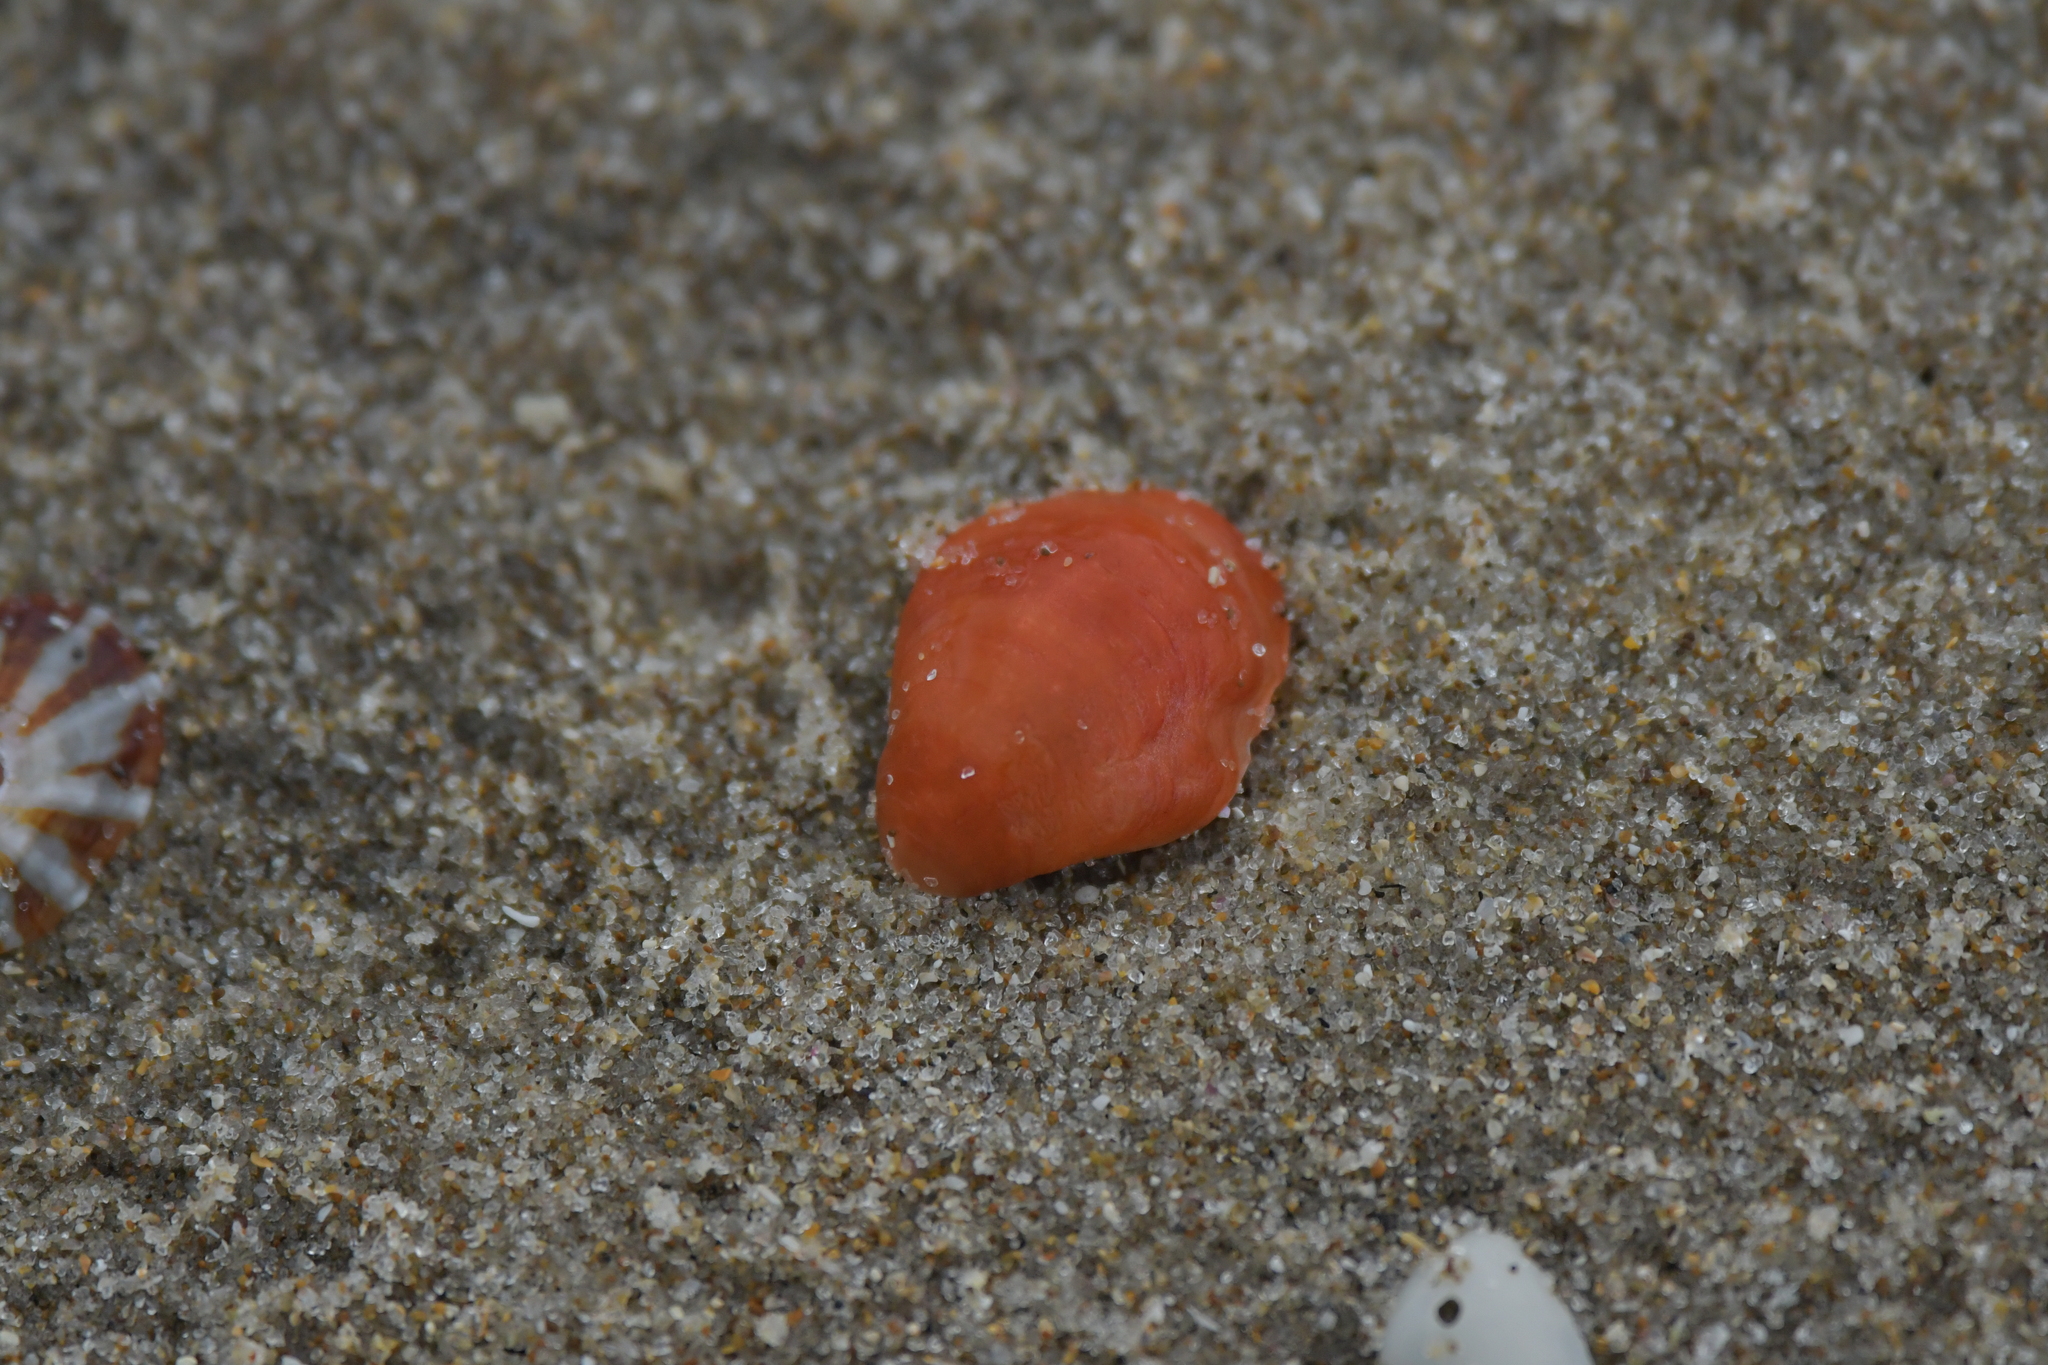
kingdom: Animalia
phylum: Brachiopoda
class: Rhynchonellata
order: Terebratulida
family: Terebratellidae
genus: Calloria
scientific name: Calloria inconspicua
